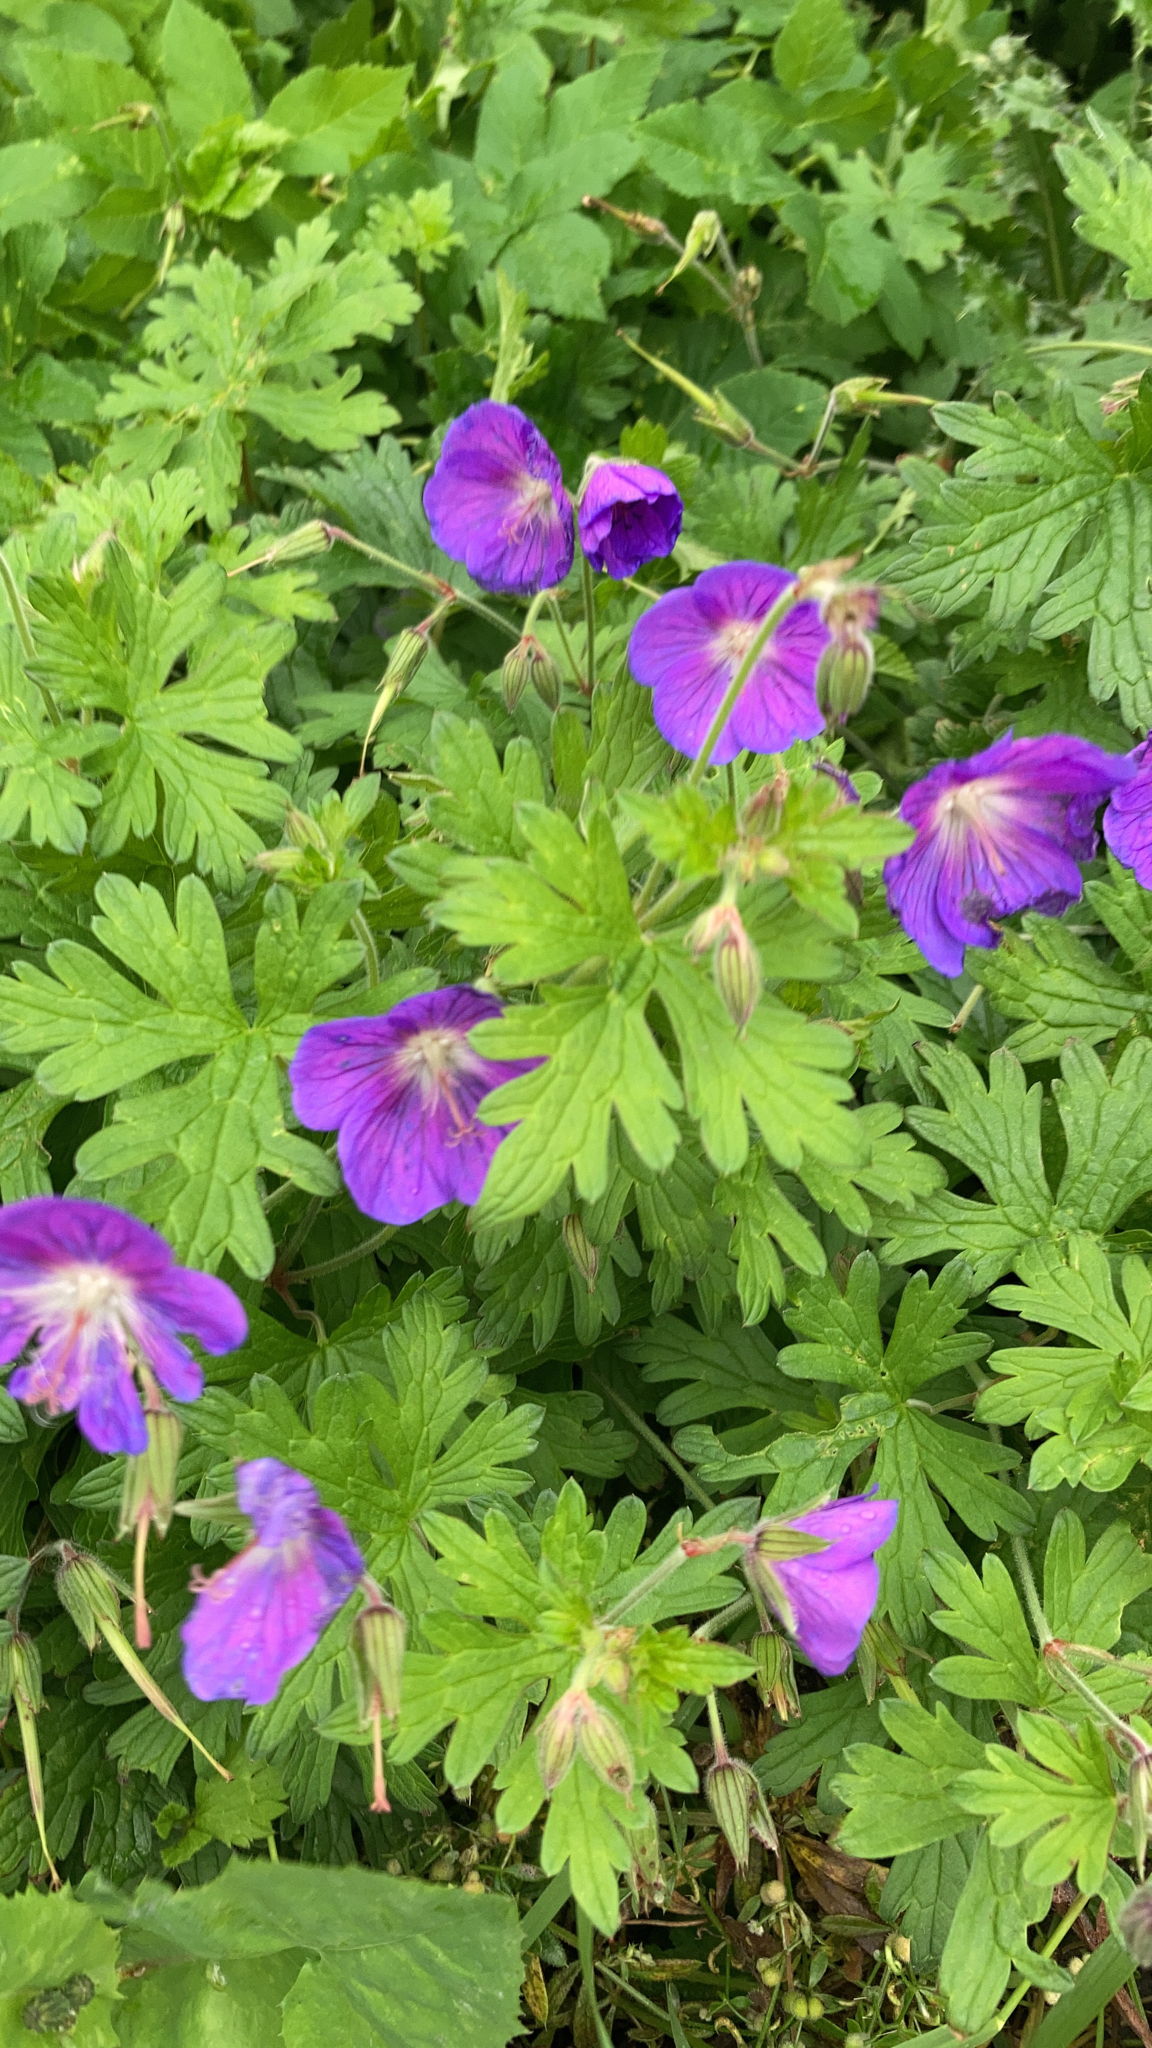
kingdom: Plantae
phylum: Tracheophyta
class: Magnoliopsida
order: Geraniales
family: Geraniaceae
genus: Geranium
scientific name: Geranium himalayense
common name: Himalayan crane's-bill
